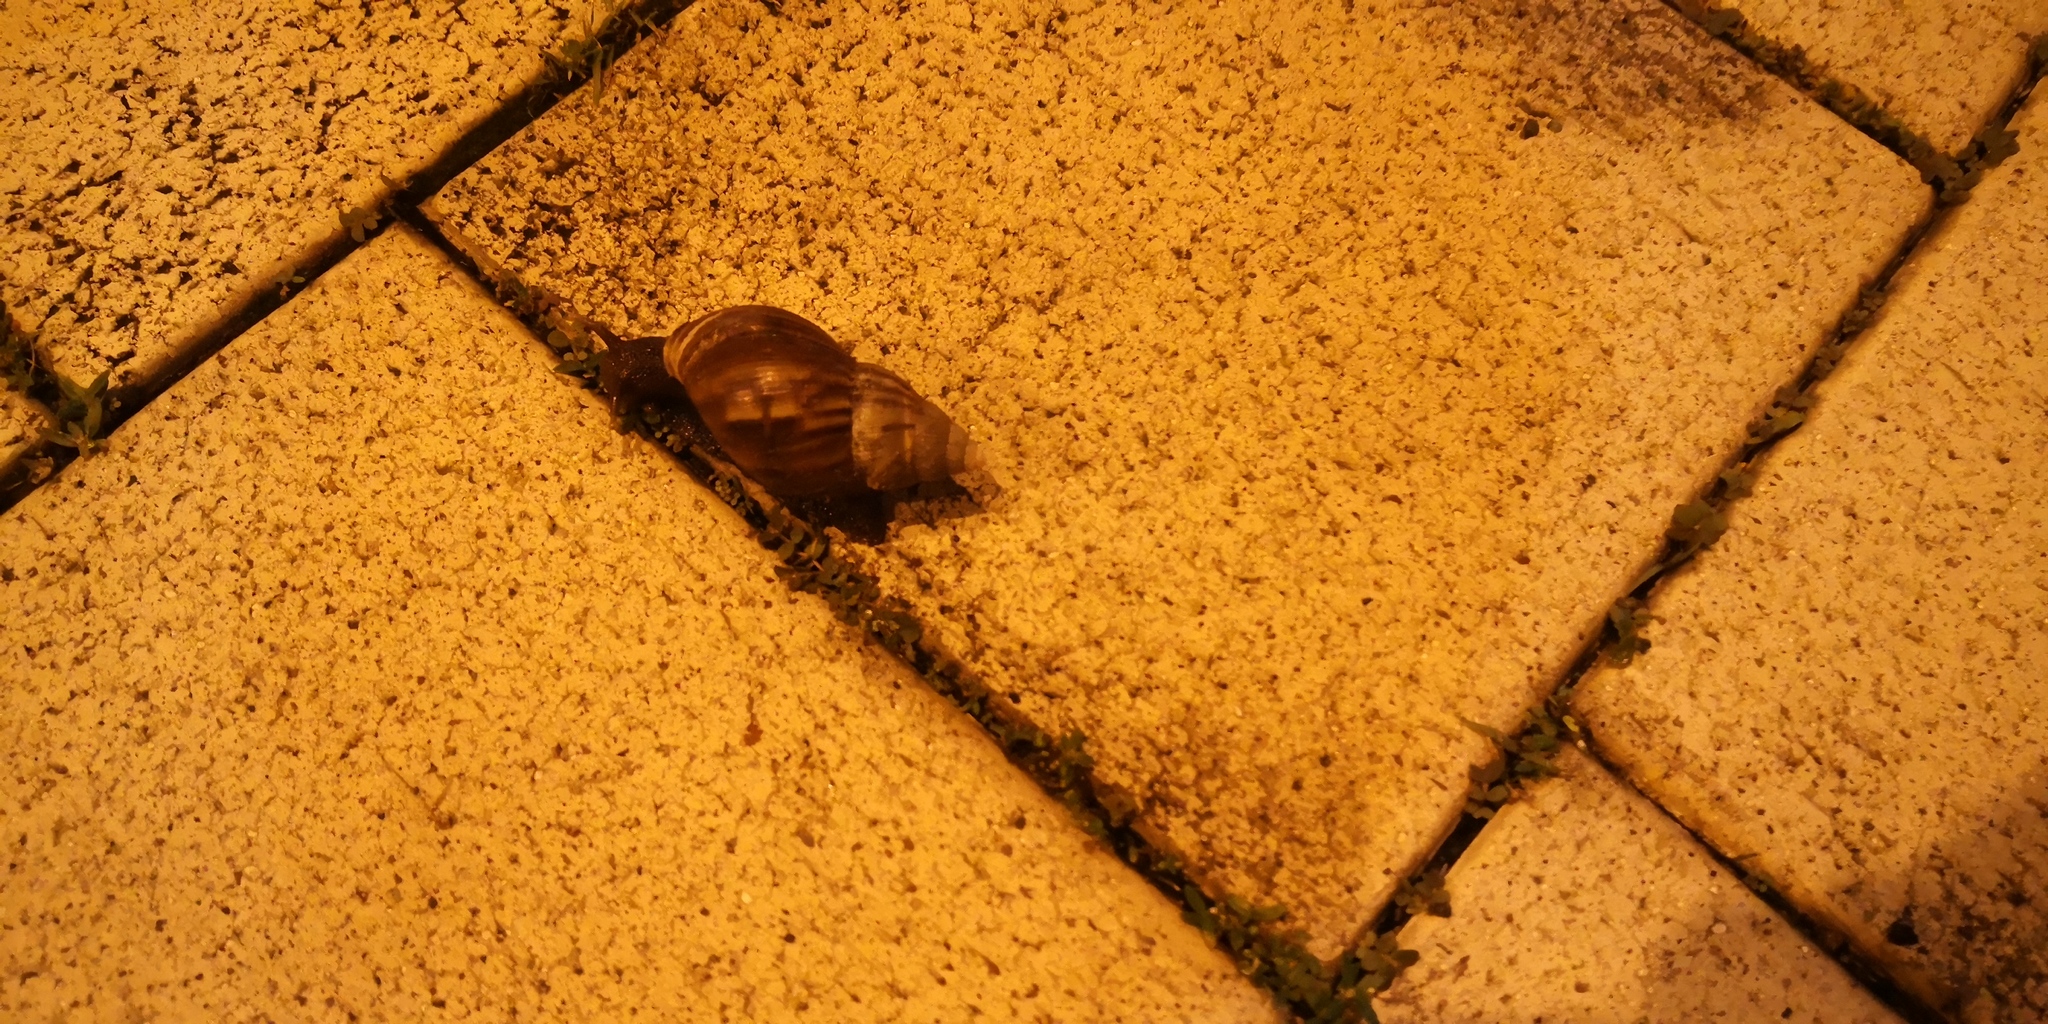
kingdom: Animalia
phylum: Mollusca
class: Gastropoda
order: Stylommatophora
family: Achatinidae
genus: Lissachatina
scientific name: Lissachatina fulica
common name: Giant african snail
